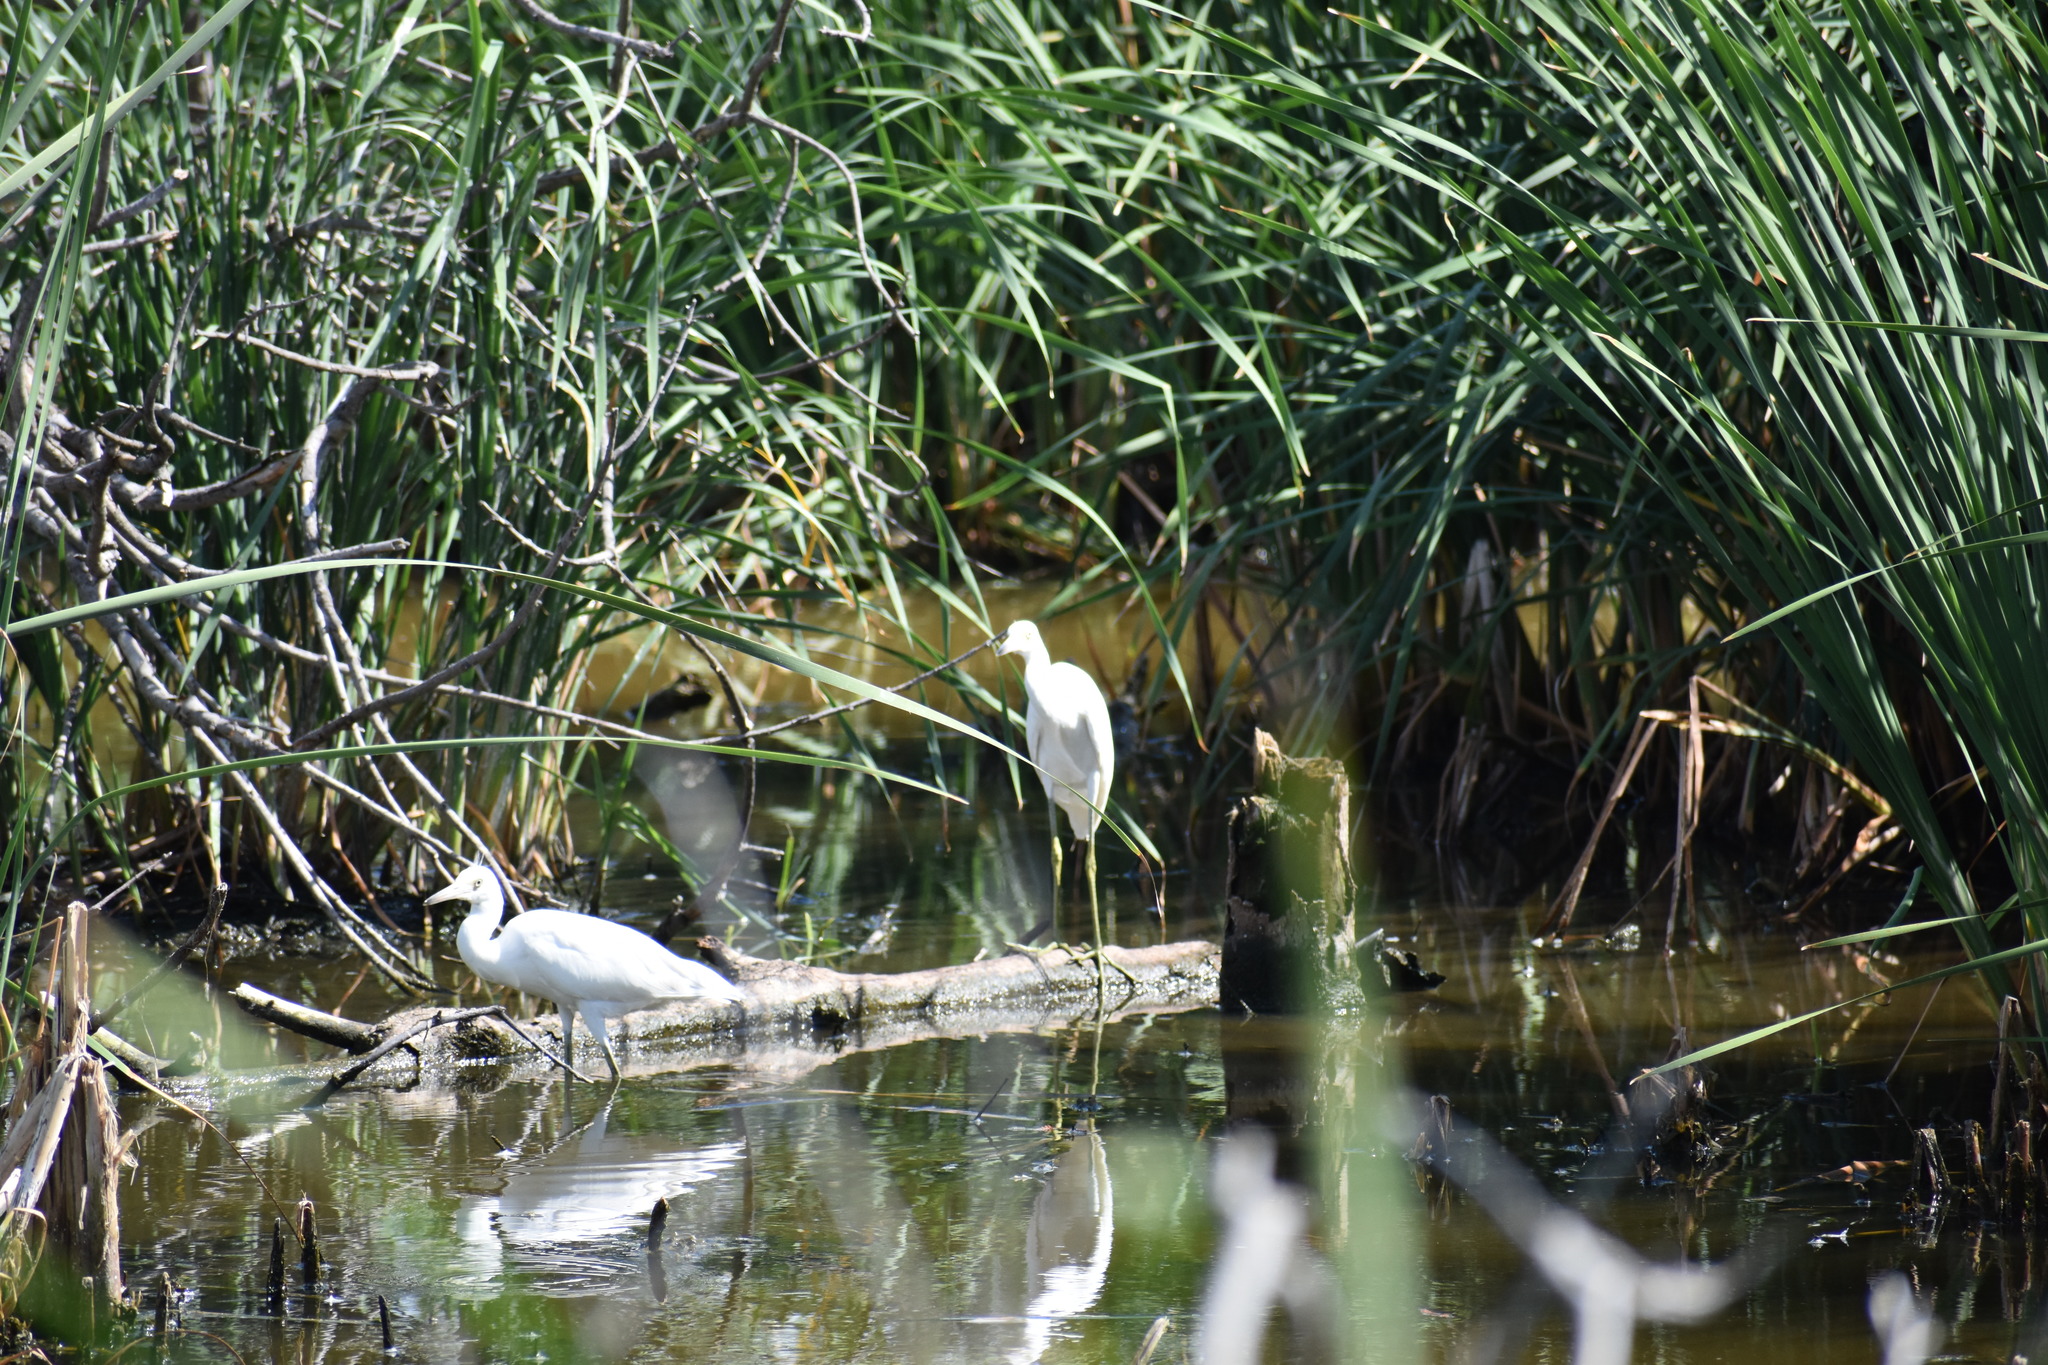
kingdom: Animalia
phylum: Chordata
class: Aves
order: Pelecaniformes
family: Ardeidae
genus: Egretta
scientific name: Egretta caerulea
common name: Little blue heron
